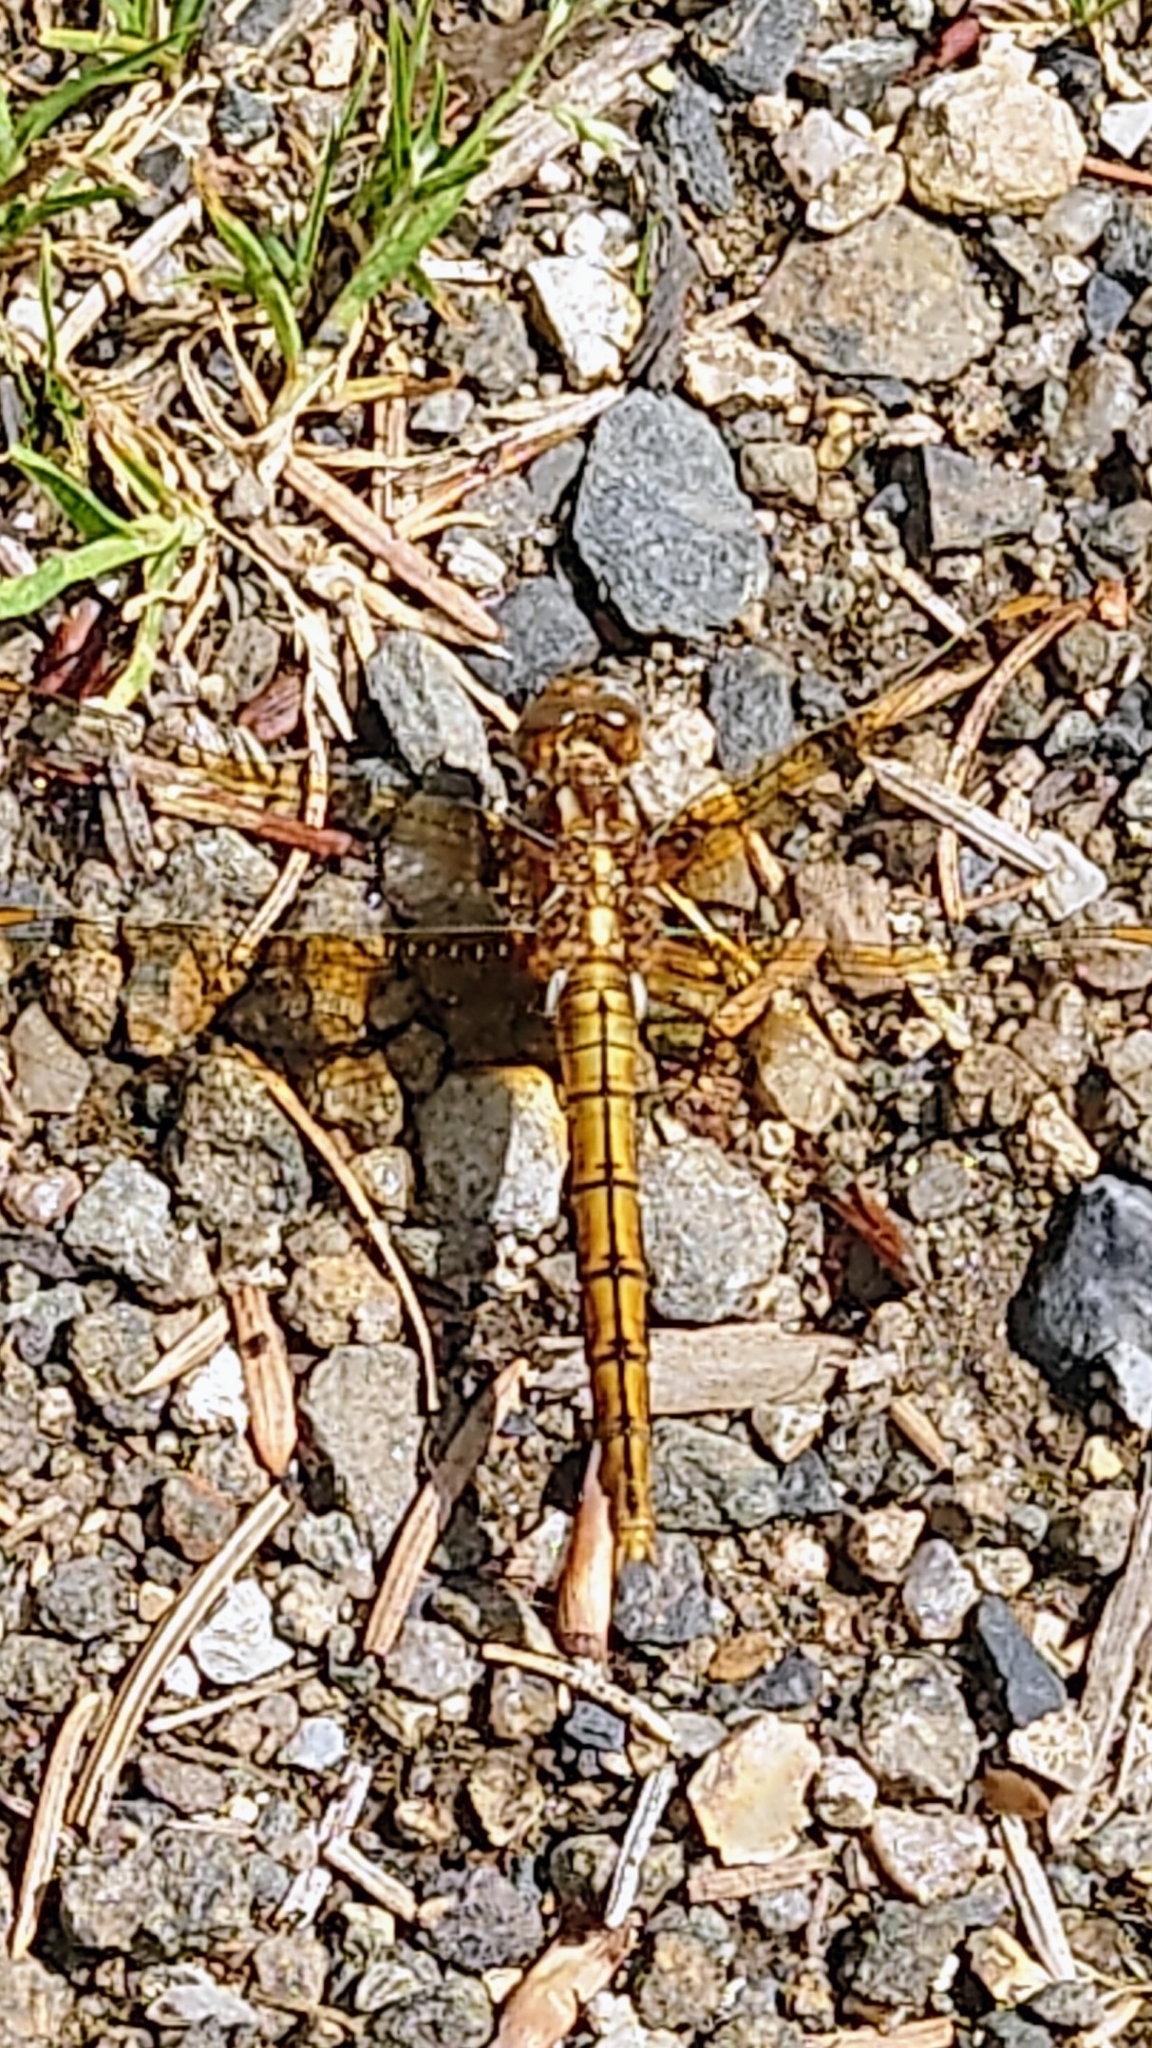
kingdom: Animalia
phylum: Arthropoda
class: Insecta
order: Odonata
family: Libellulidae
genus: Orthetrum
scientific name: Orthetrum coerulescens
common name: Keeled skimmer
